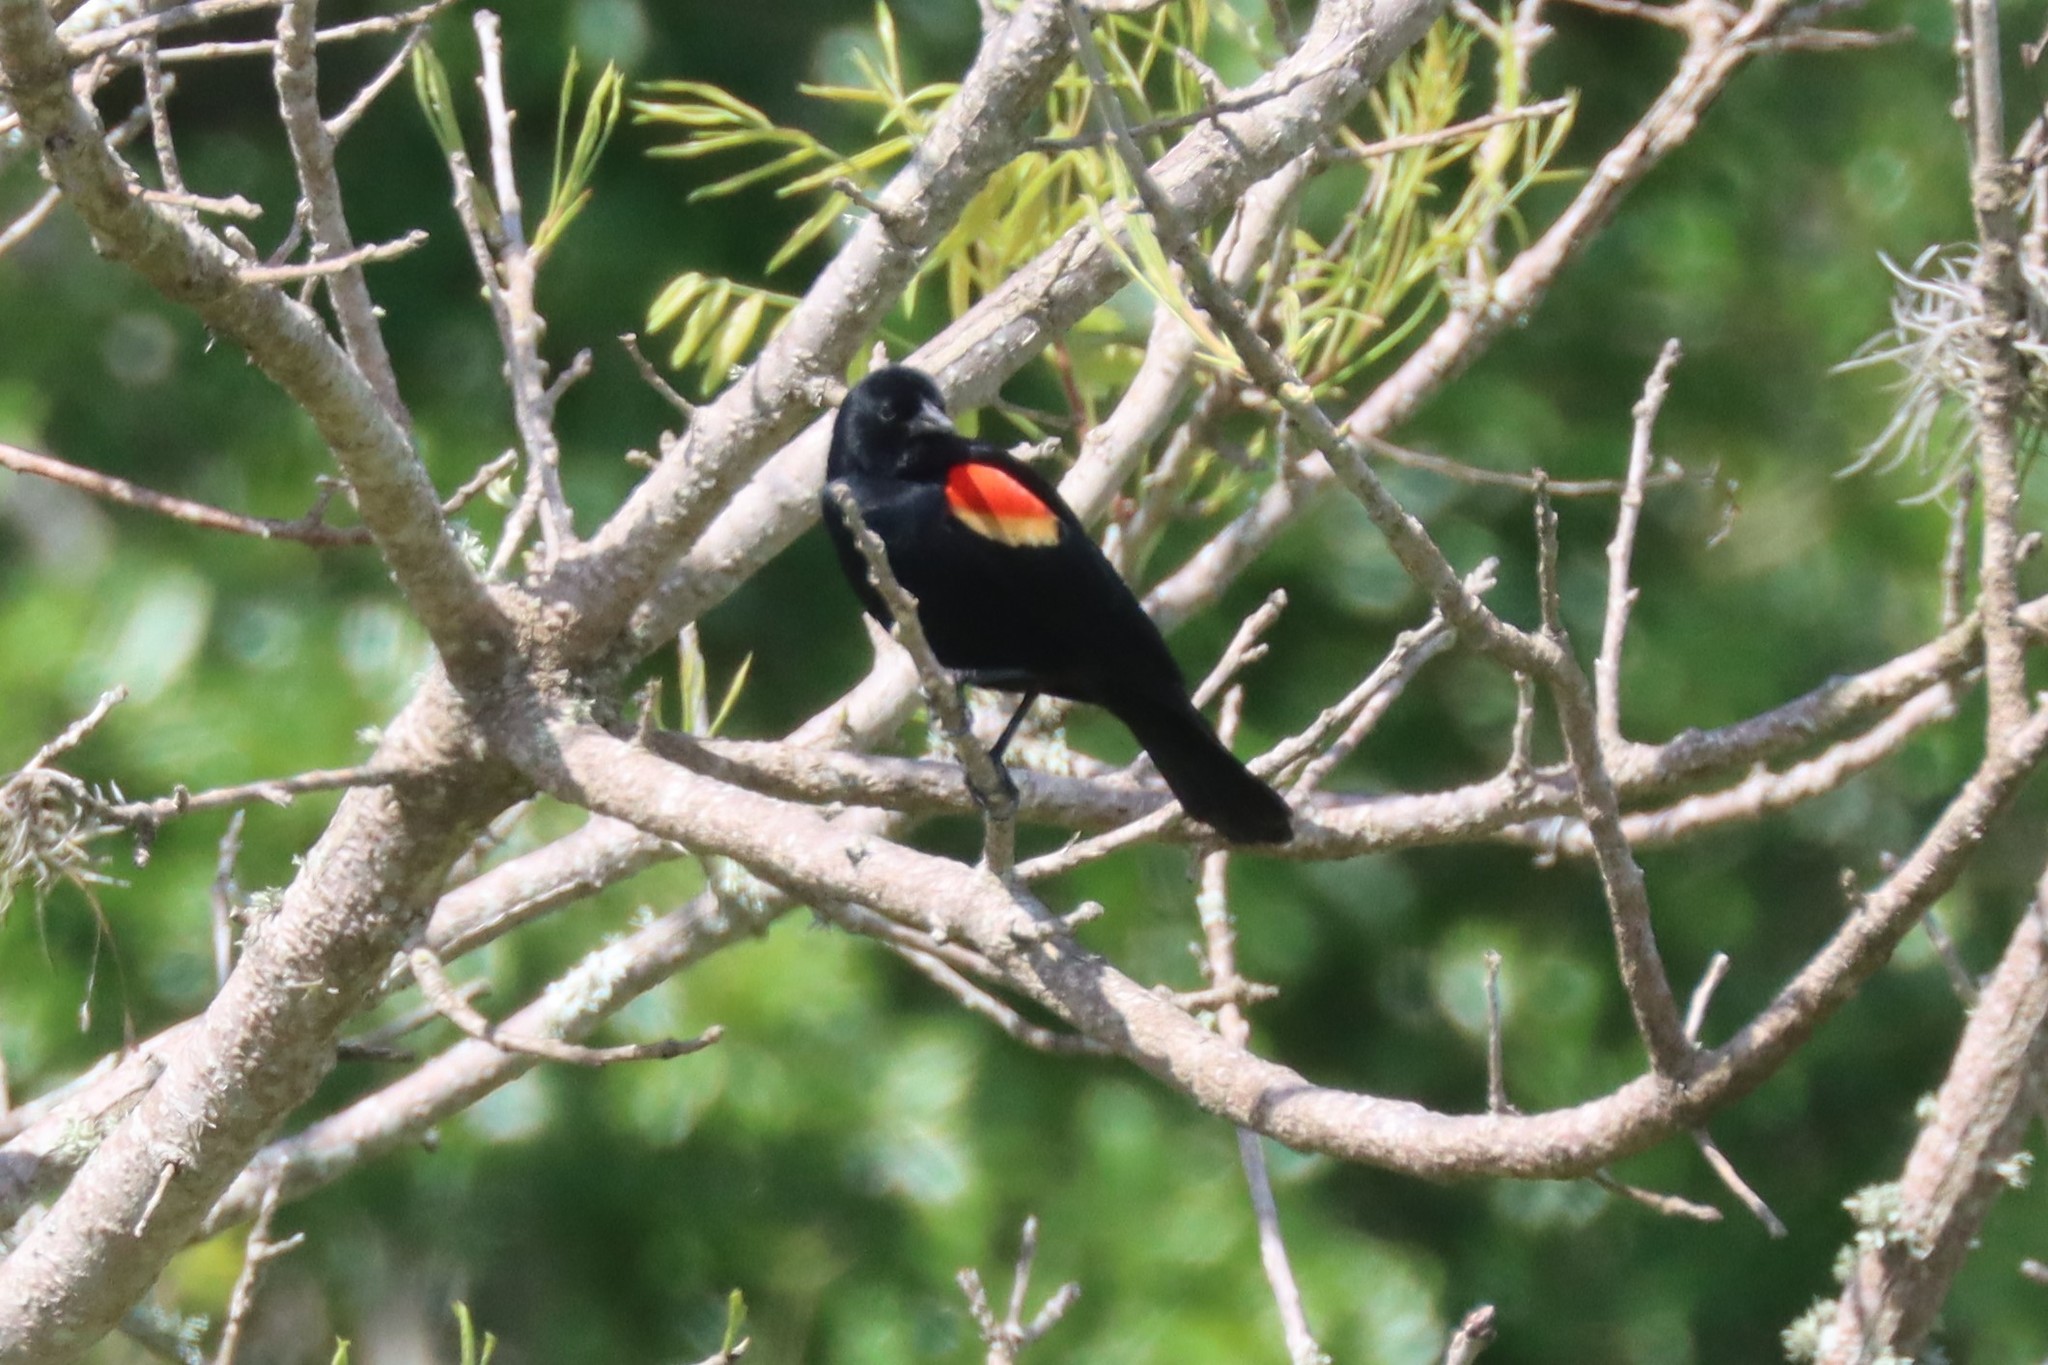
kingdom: Animalia
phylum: Chordata
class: Aves
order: Passeriformes
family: Icteridae
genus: Agelaius
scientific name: Agelaius phoeniceus
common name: Red-winged blackbird
